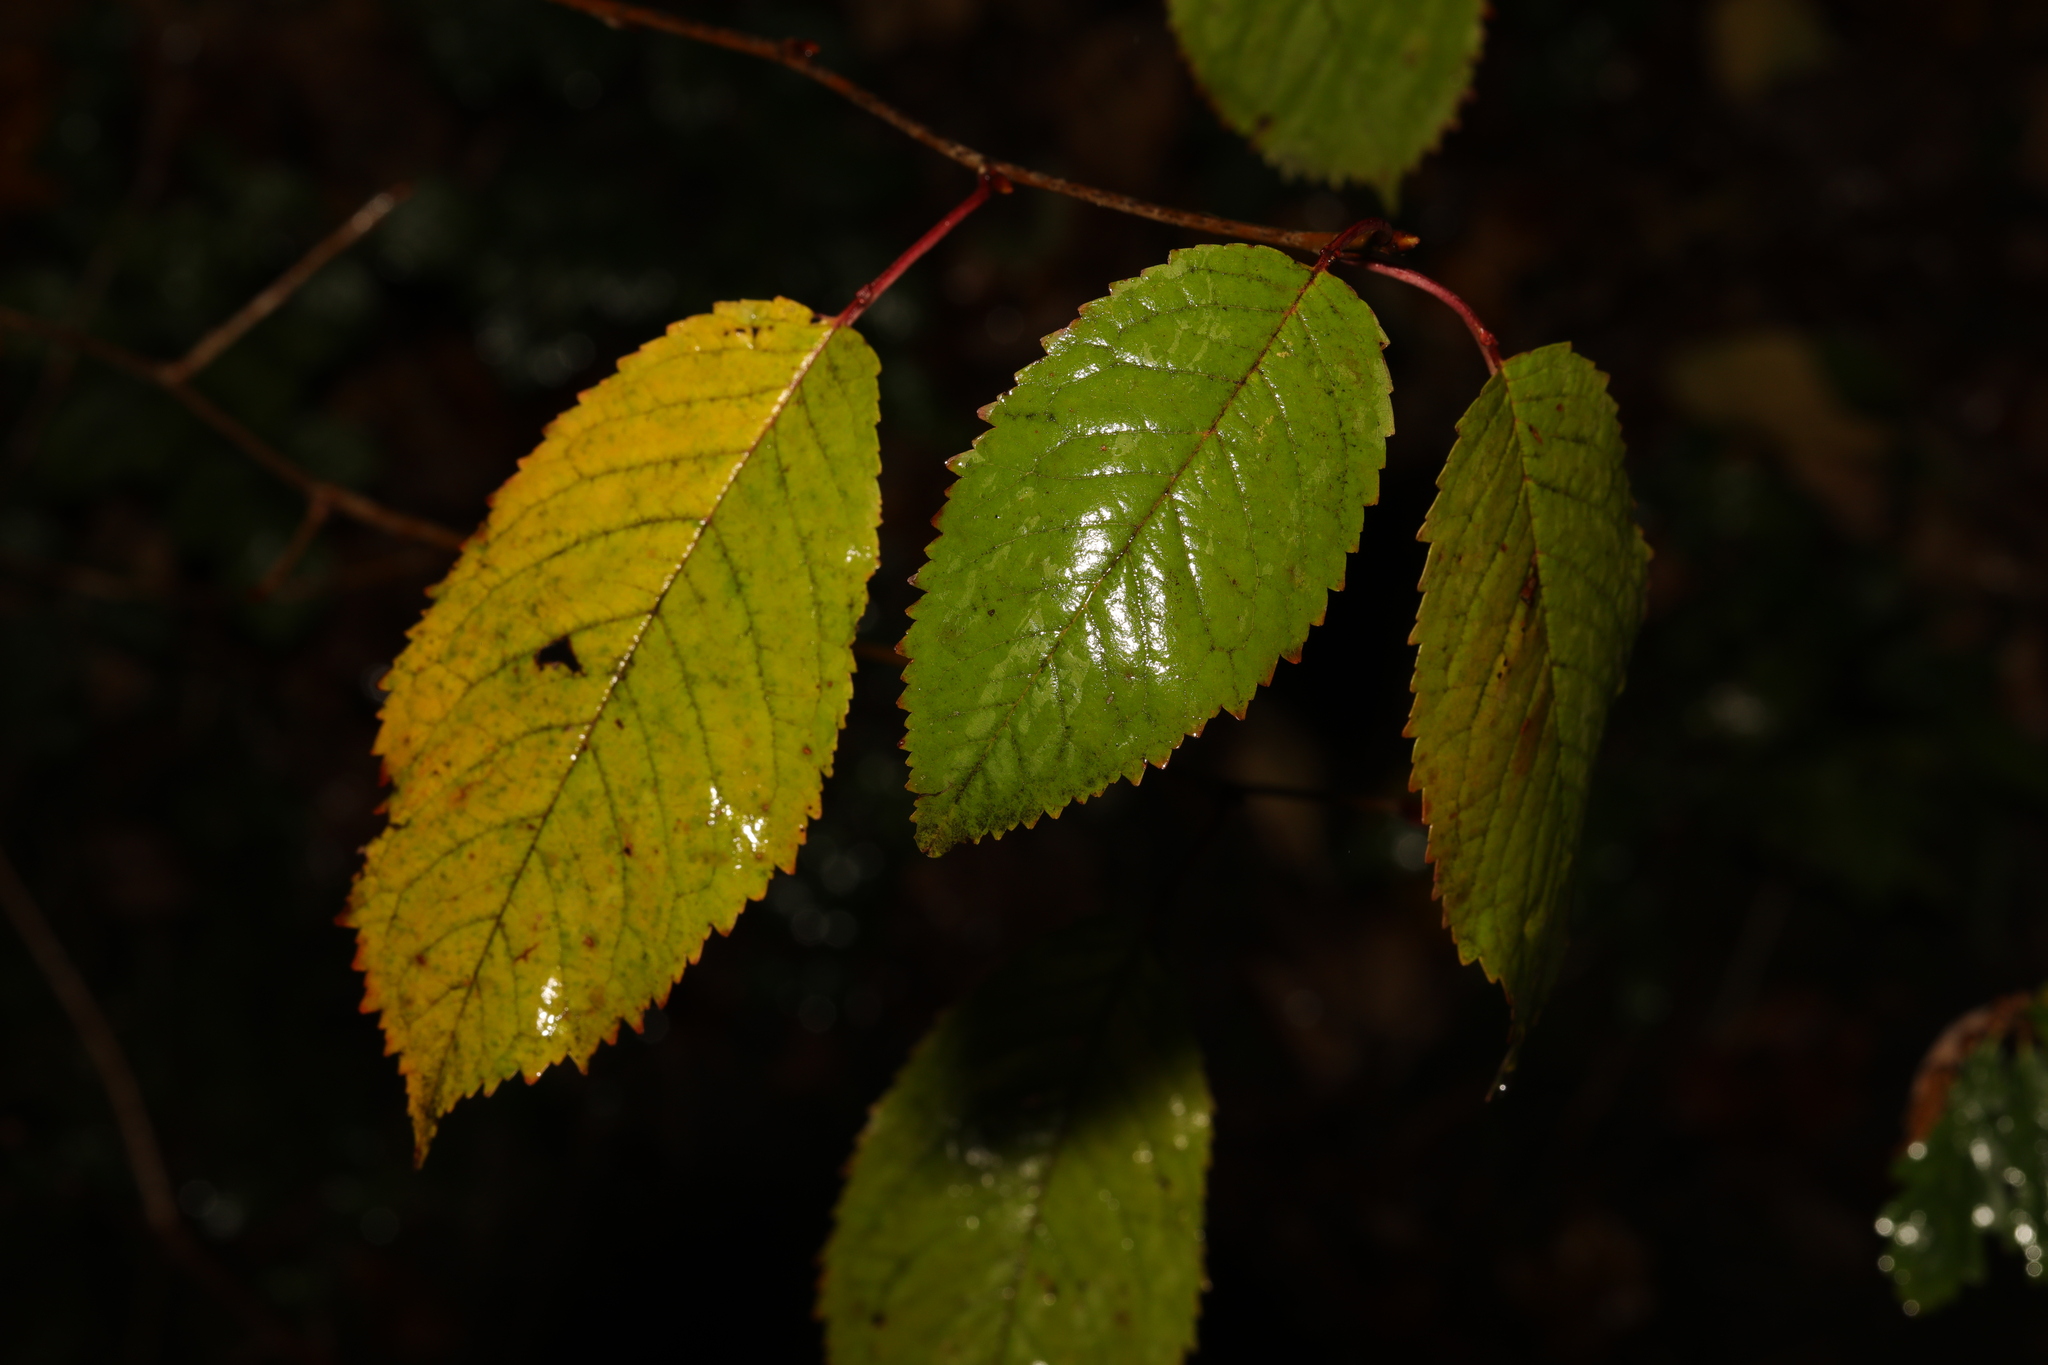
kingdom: Plantae
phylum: Tracheophyta
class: Magnoliopsida
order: Rosales
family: Rosaceae
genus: Prunus
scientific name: Prunus avium
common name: Sweet cherry
